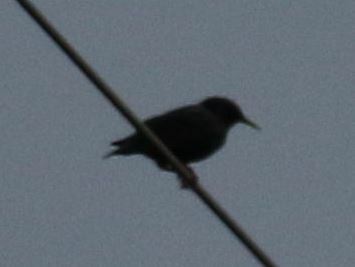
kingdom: Animalia
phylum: Chordata
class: Aves
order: Passeriformes
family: Sturnidae
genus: Sturnus
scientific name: Sturnus vulgaris
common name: Common starling
